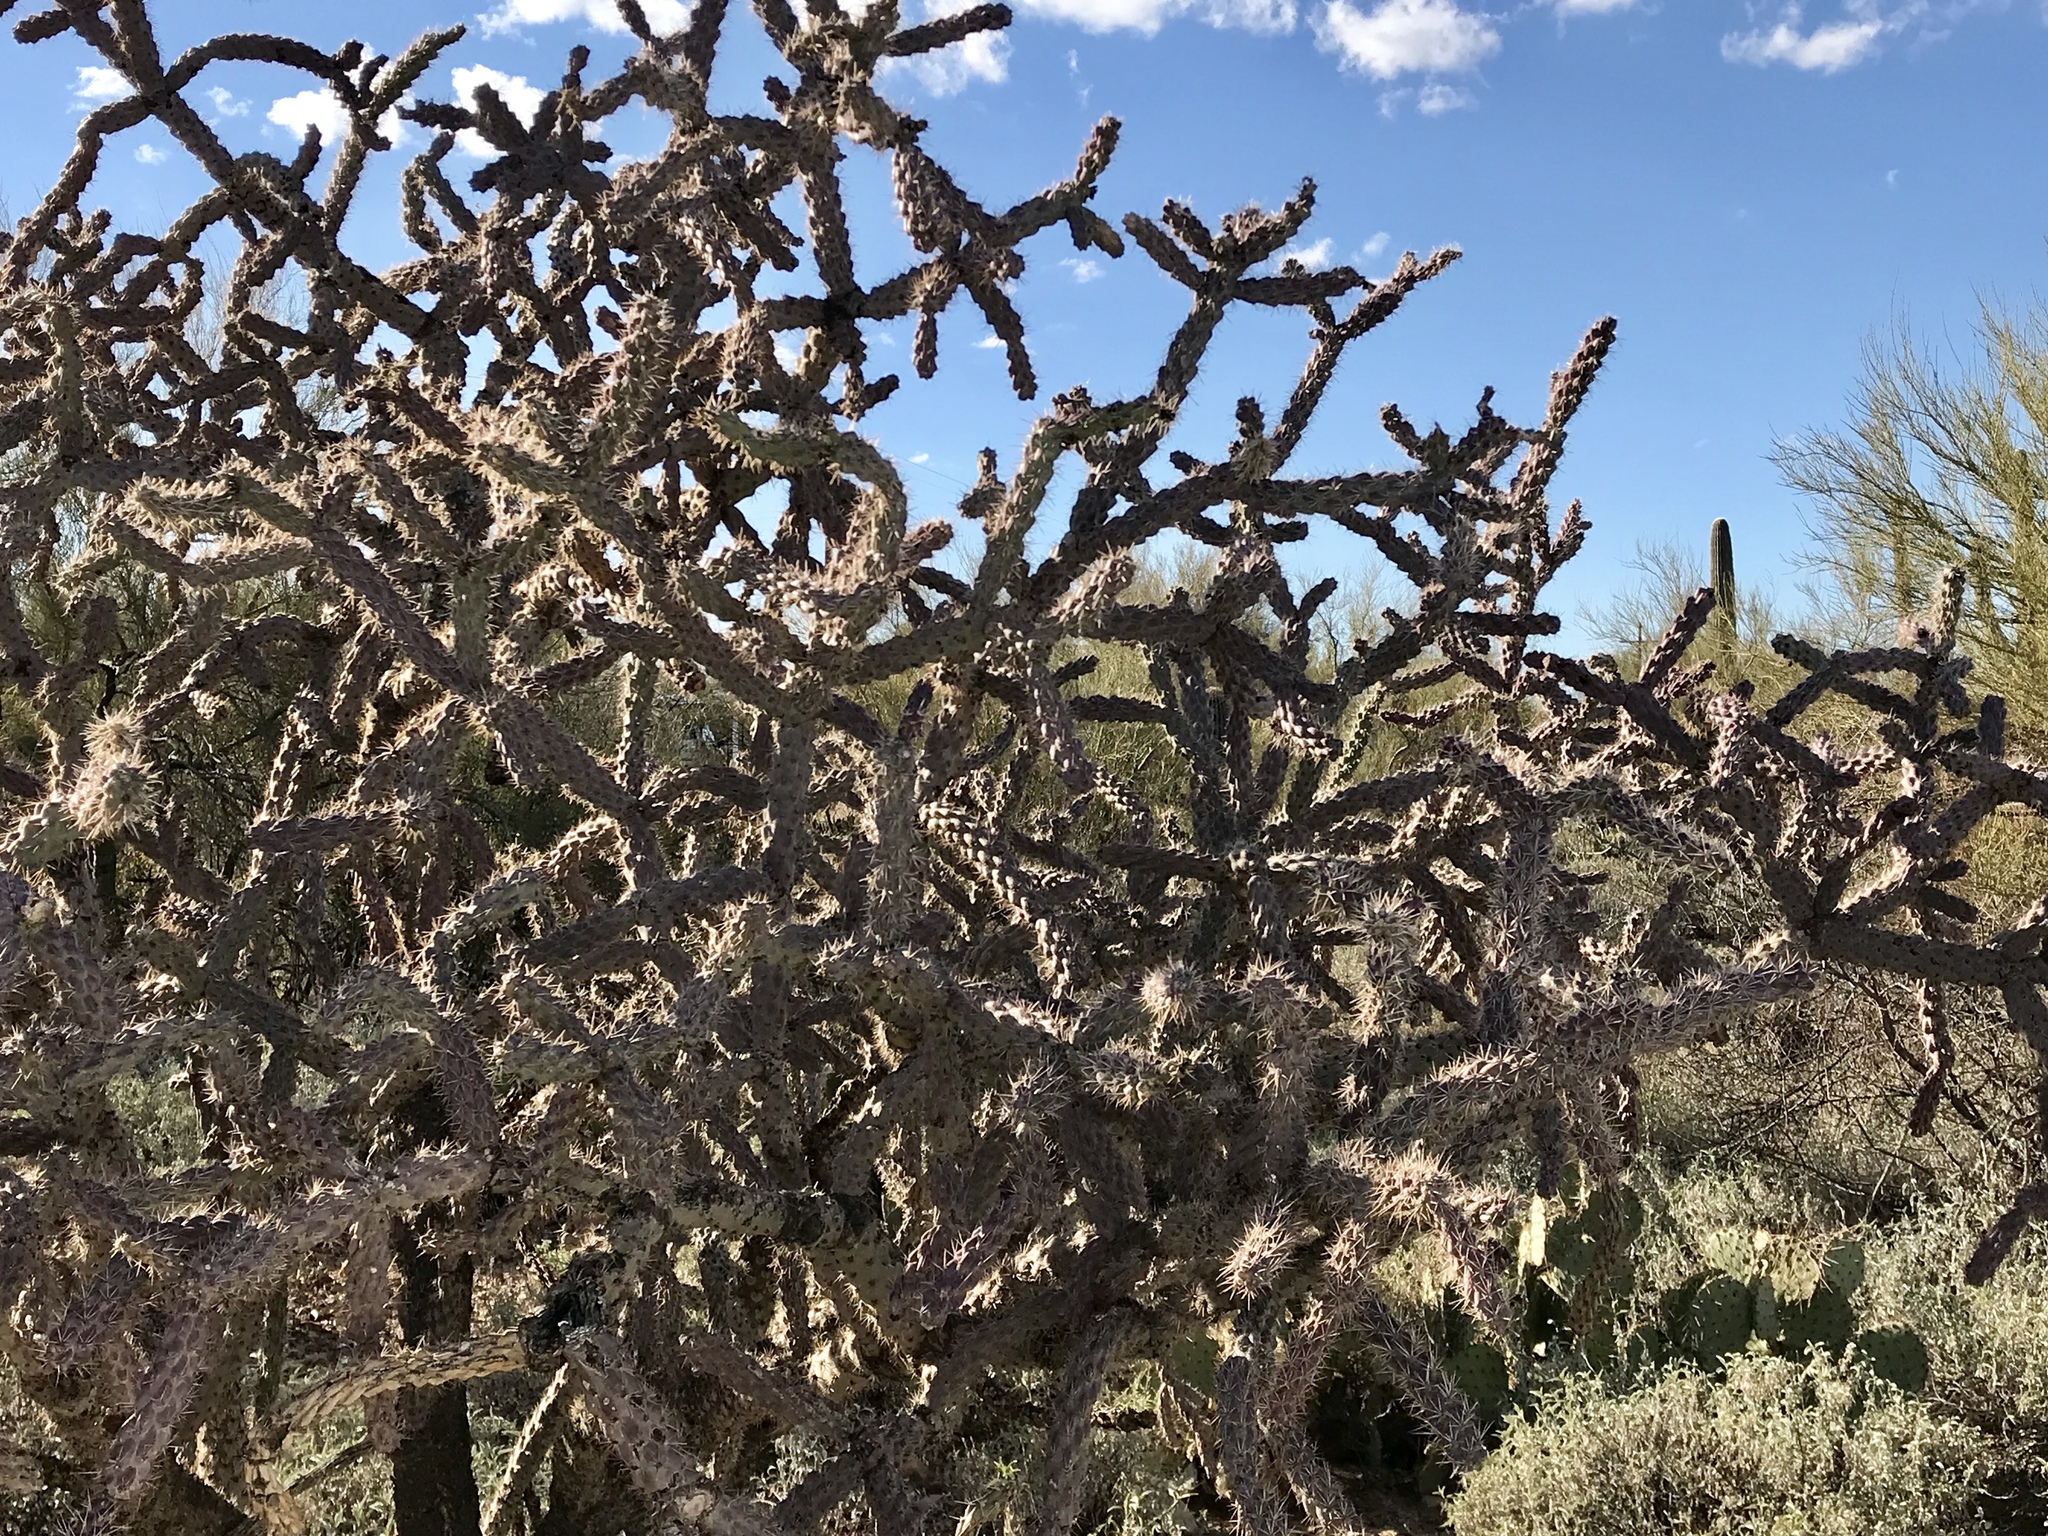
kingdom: Plantae
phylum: Tracheophyta
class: Magnoliopsida
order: Caryophyllales
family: Cactaceae
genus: Cylindropuntia
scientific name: Cylindropuntia thurberi
